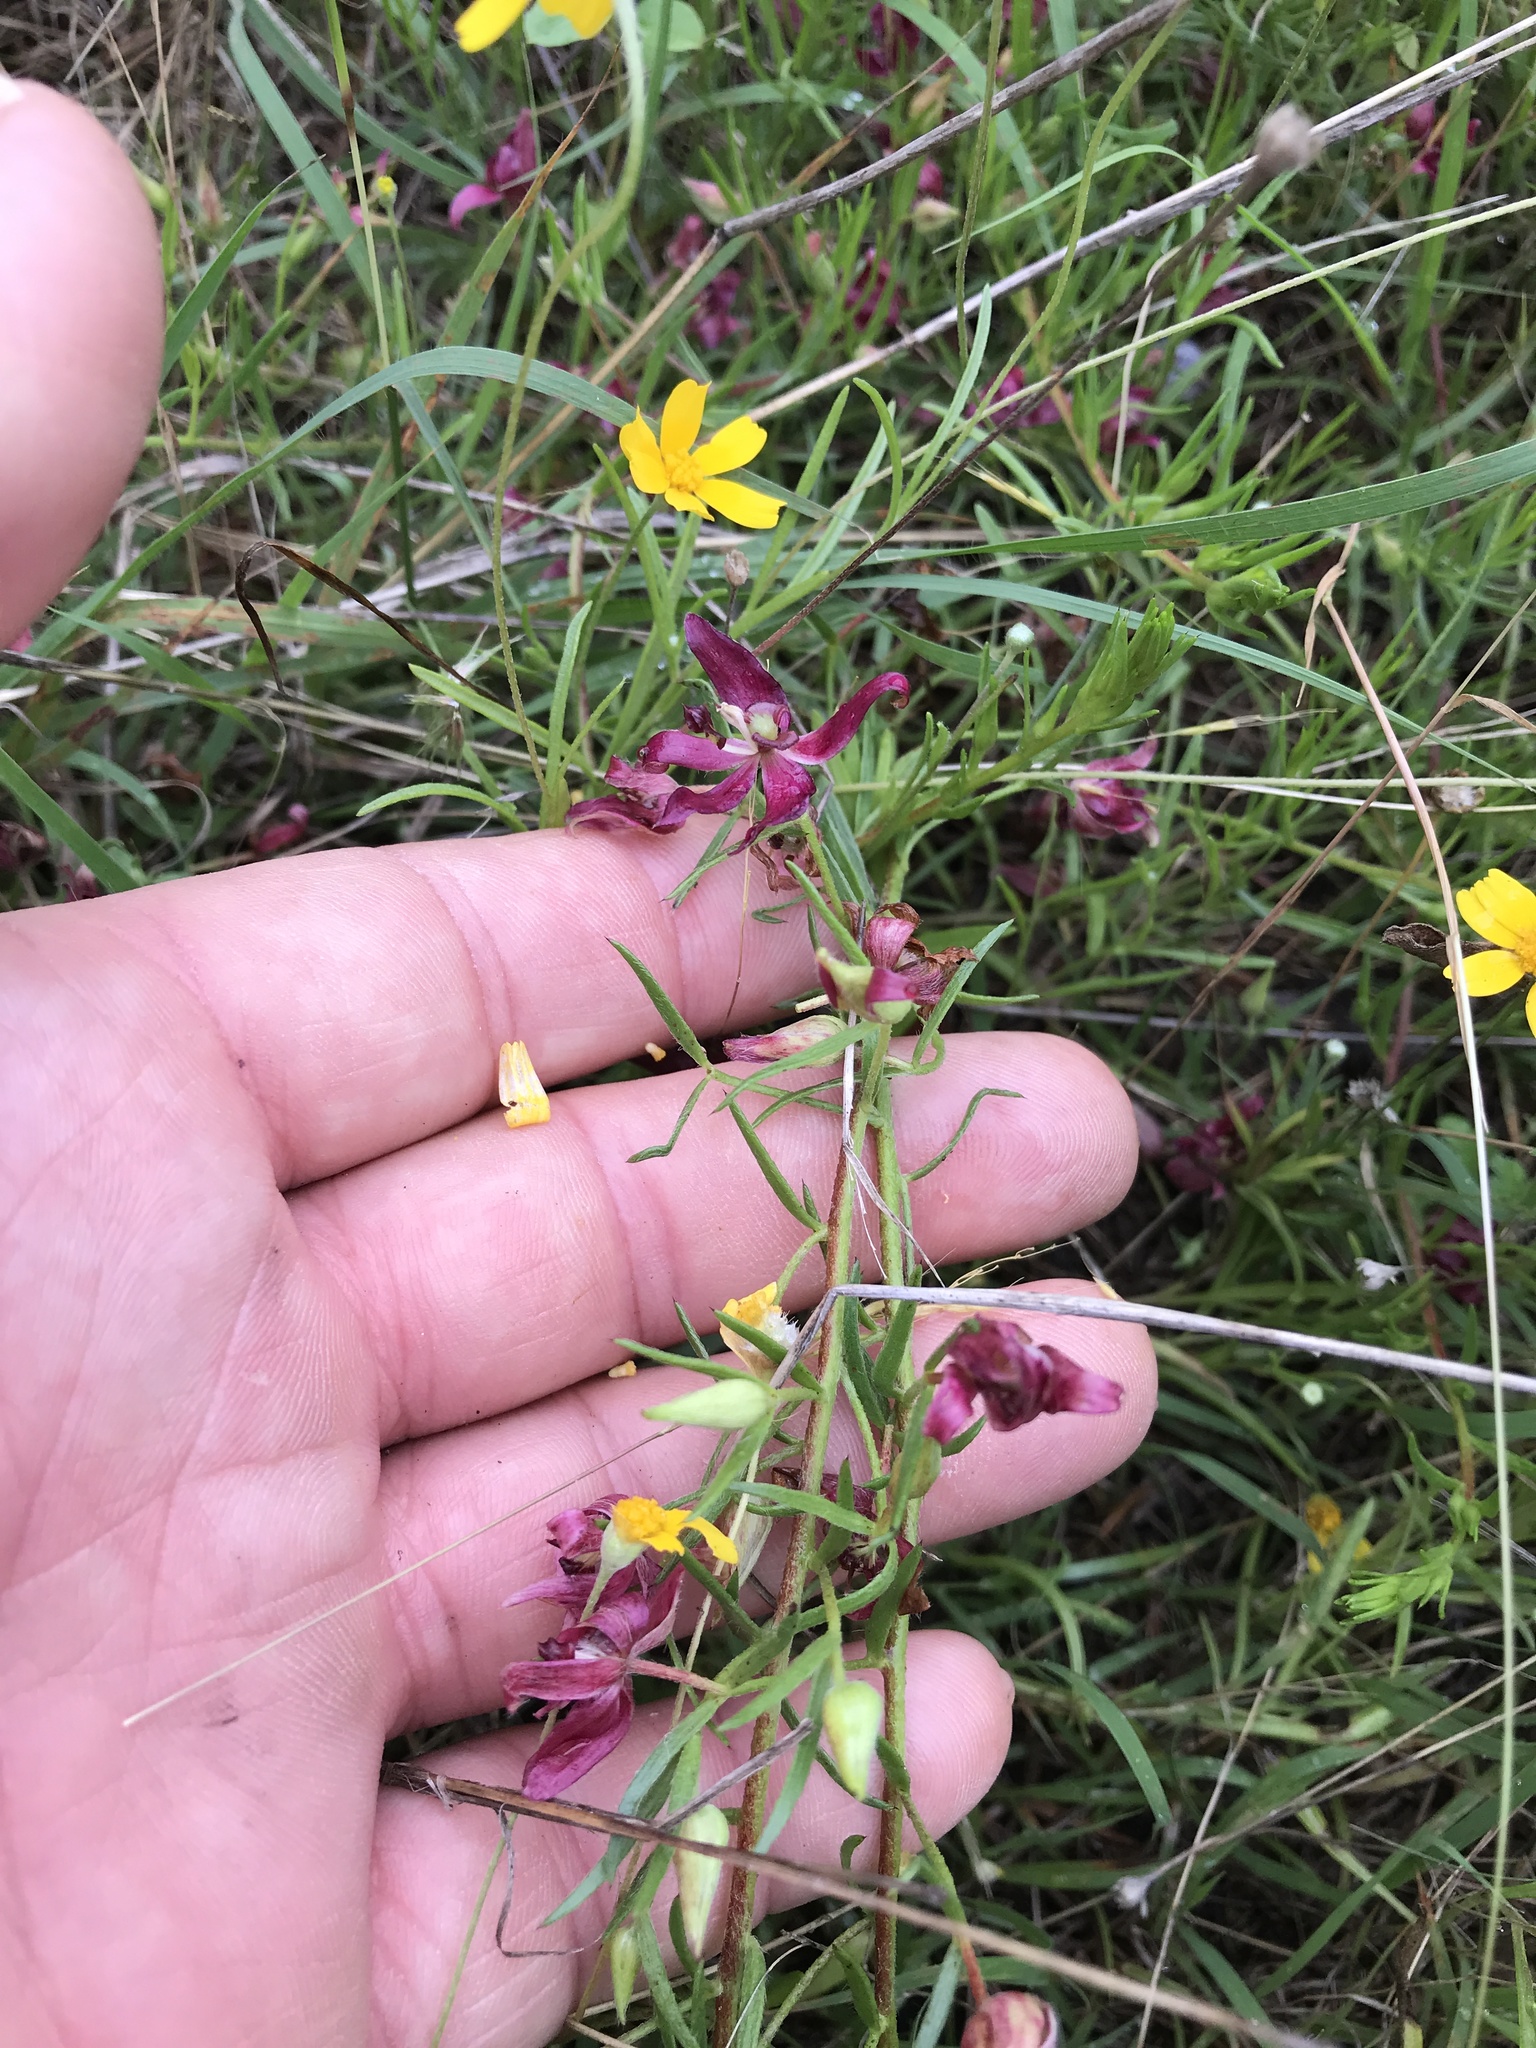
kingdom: Plantae
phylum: Tracheophyta
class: Magnoliopsida
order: Zygophyllales
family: Krameriaceae
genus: Krameria
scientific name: Krameria lanceolata
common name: Ratany
